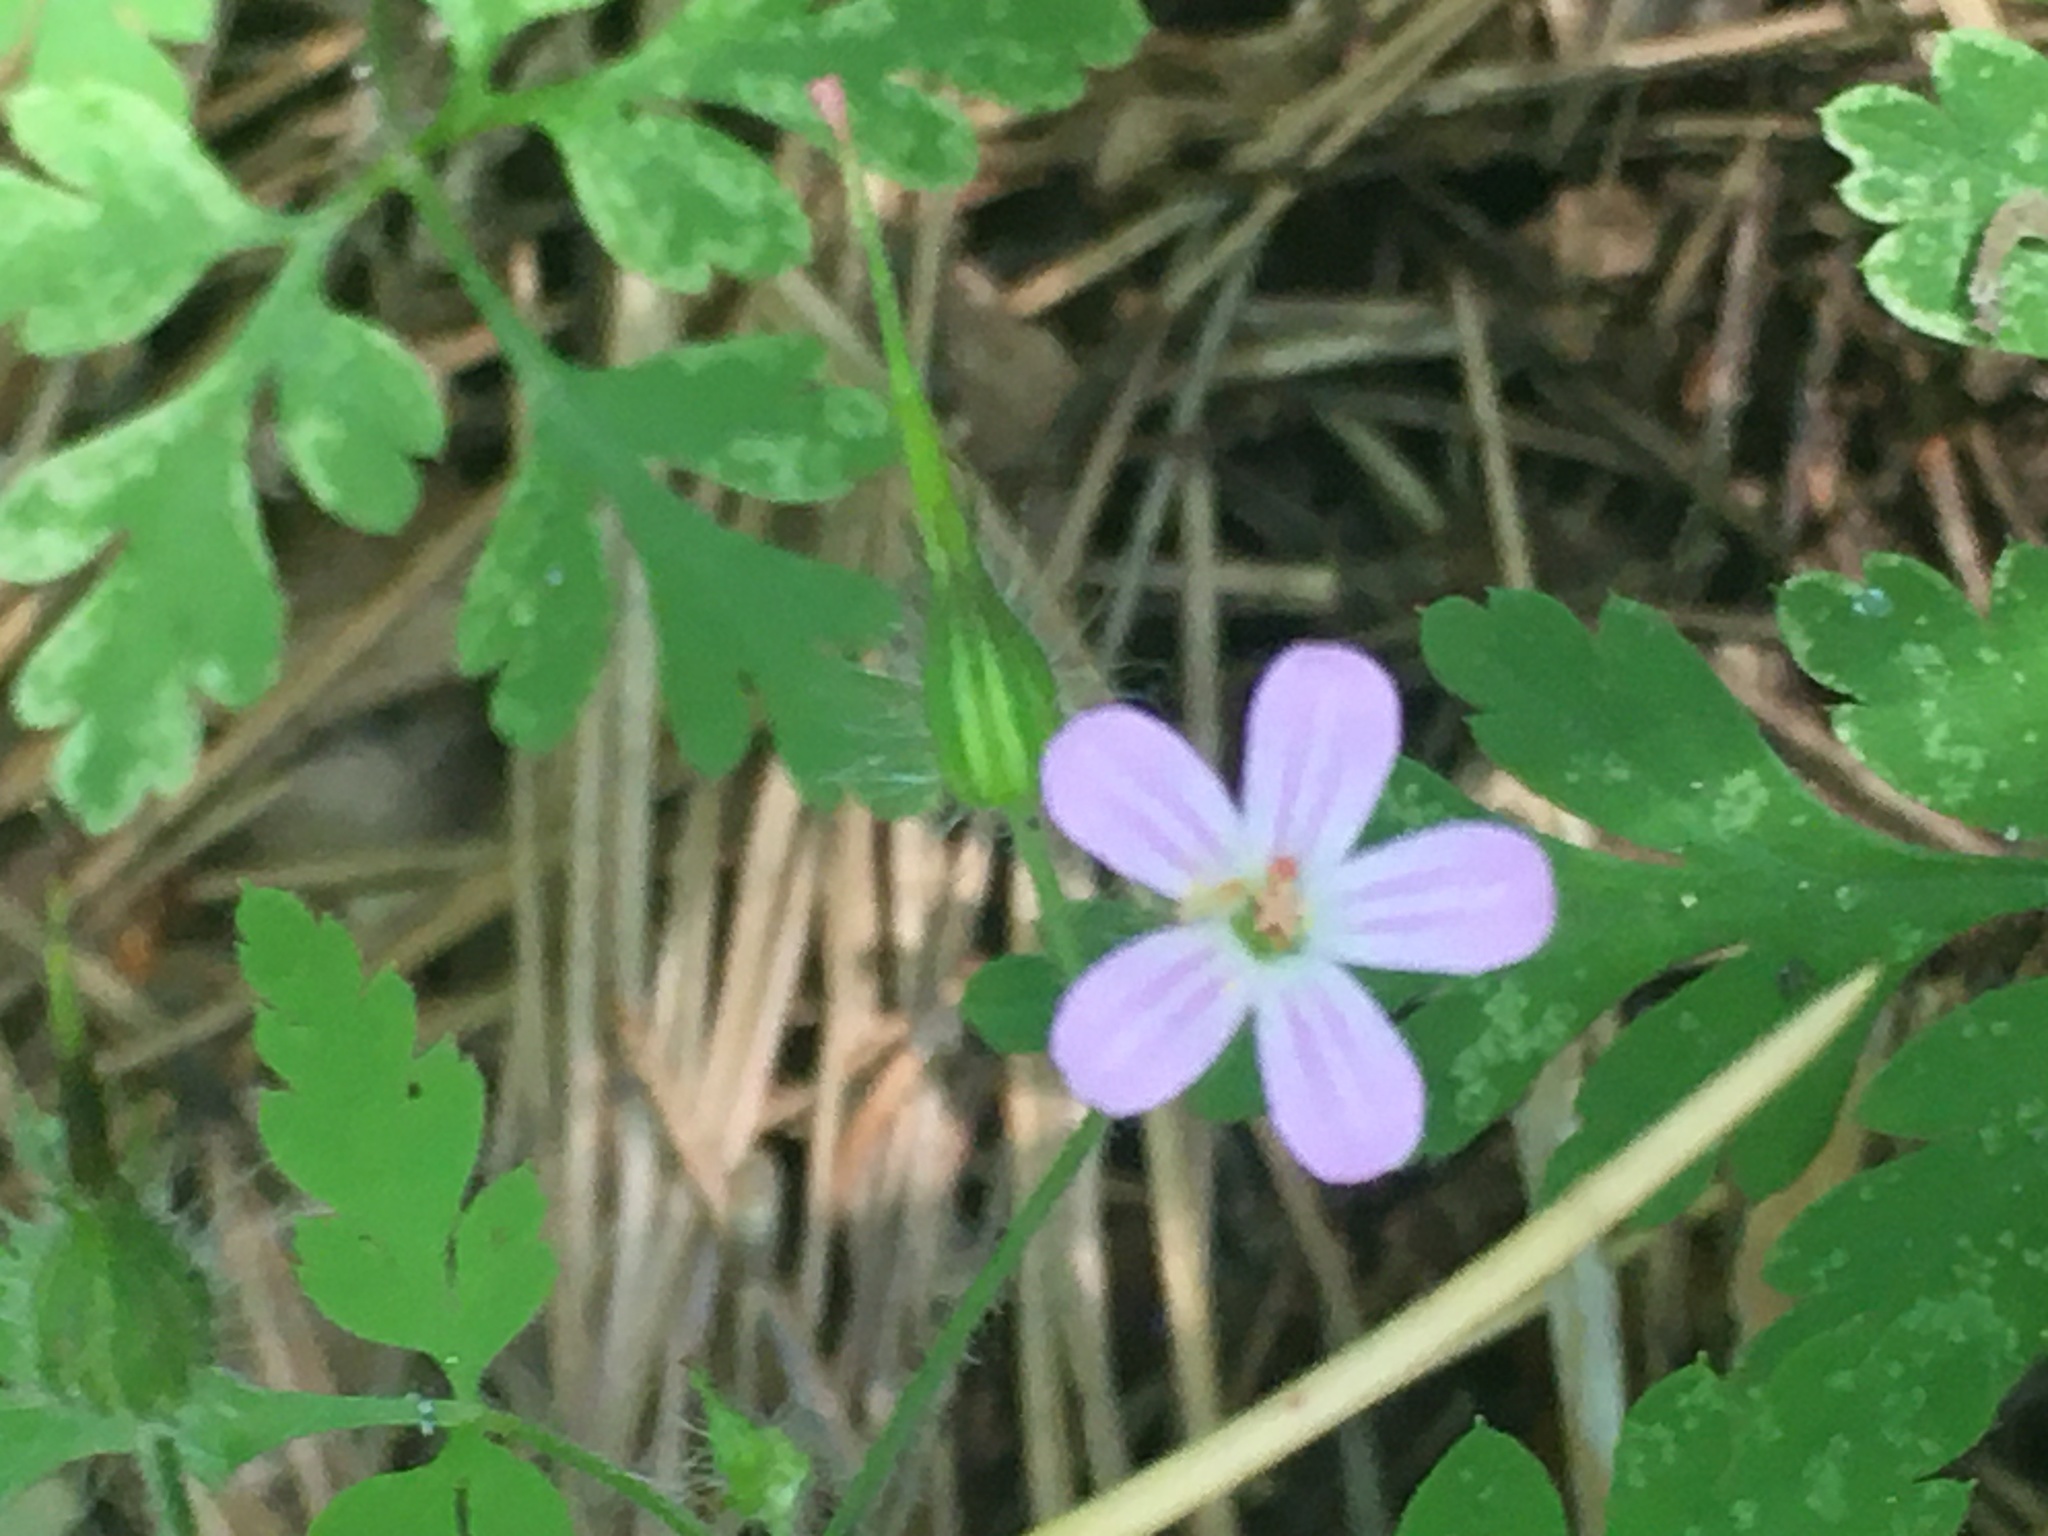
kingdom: Plantae
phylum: Tracheophyta
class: Magnoliopsida
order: Geraniales
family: Geraniaceae
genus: Geranium
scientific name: Geranium robertianum
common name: Herb-robert
